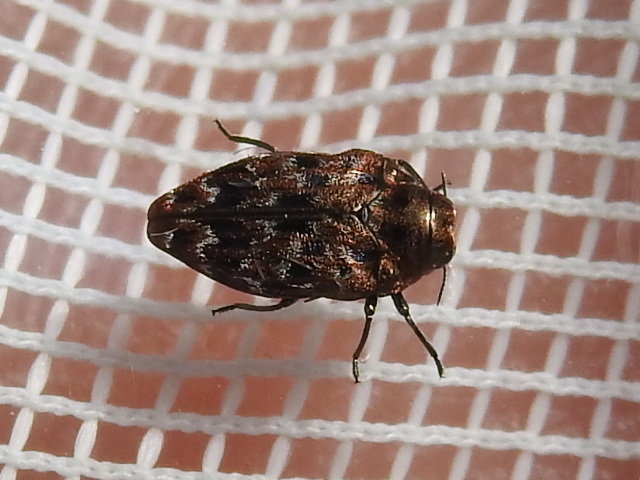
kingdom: Animalia
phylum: Arthropoda
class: Insecta
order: Coleoptera
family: Buprestidae
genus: Brachys
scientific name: Brachys ovatus
